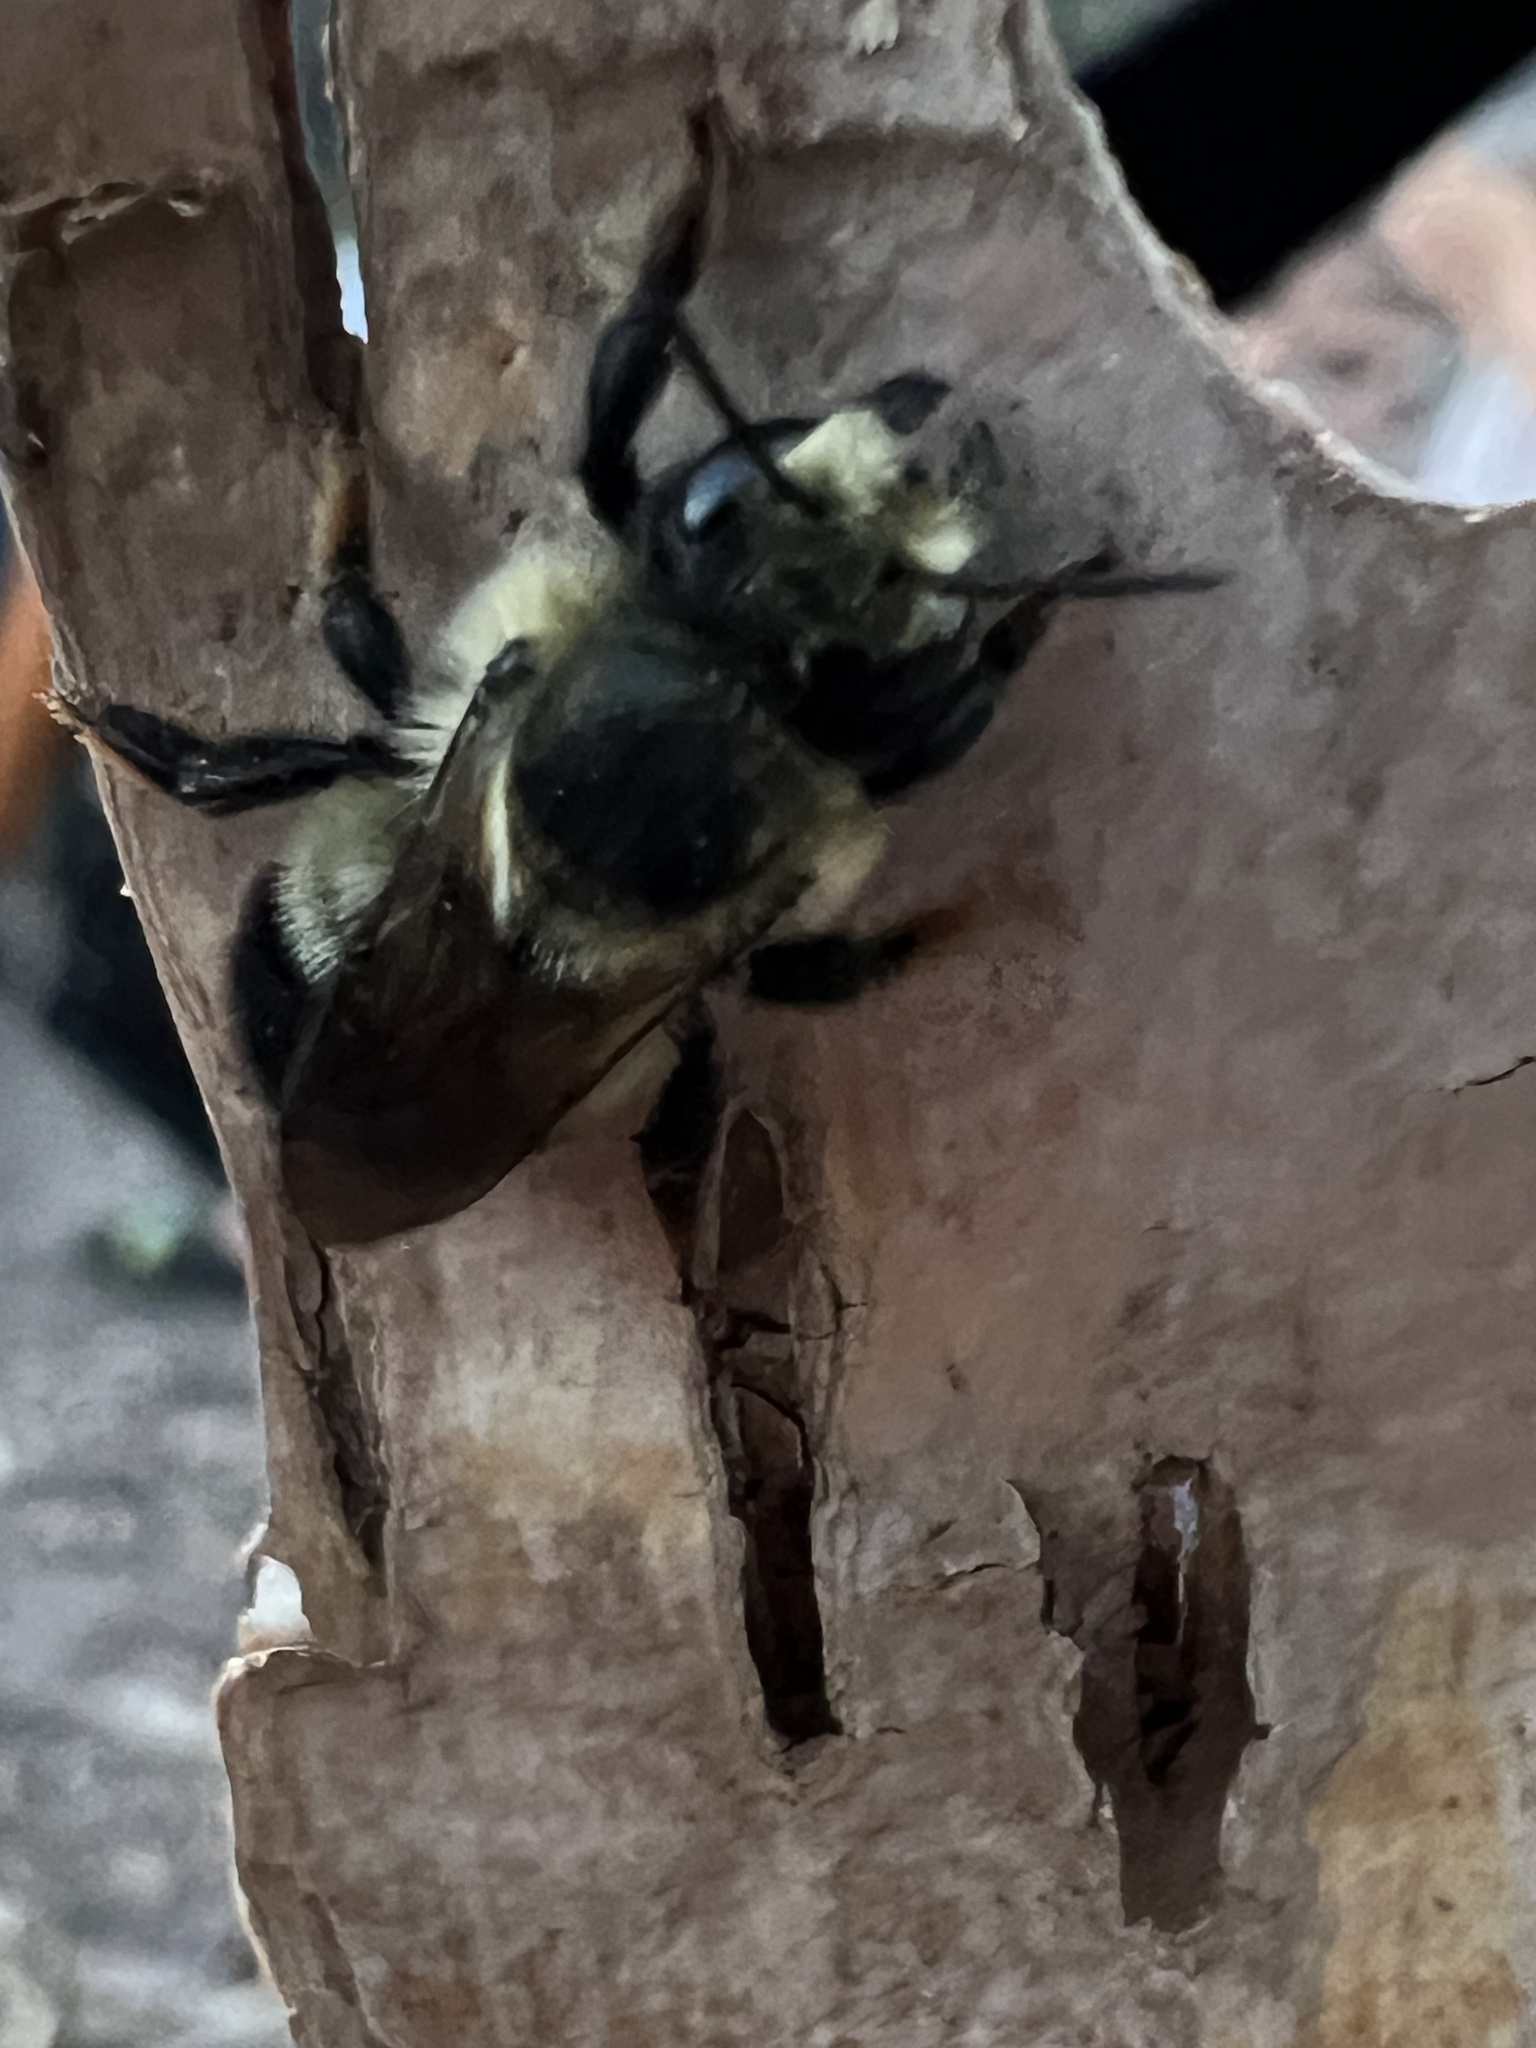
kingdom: Animalia
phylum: Arthropoda
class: Insecta
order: Hymenoptera
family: Megachilidae
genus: Megachile
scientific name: Megachile melanophaea
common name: Black-and-gray leafcutter bee
